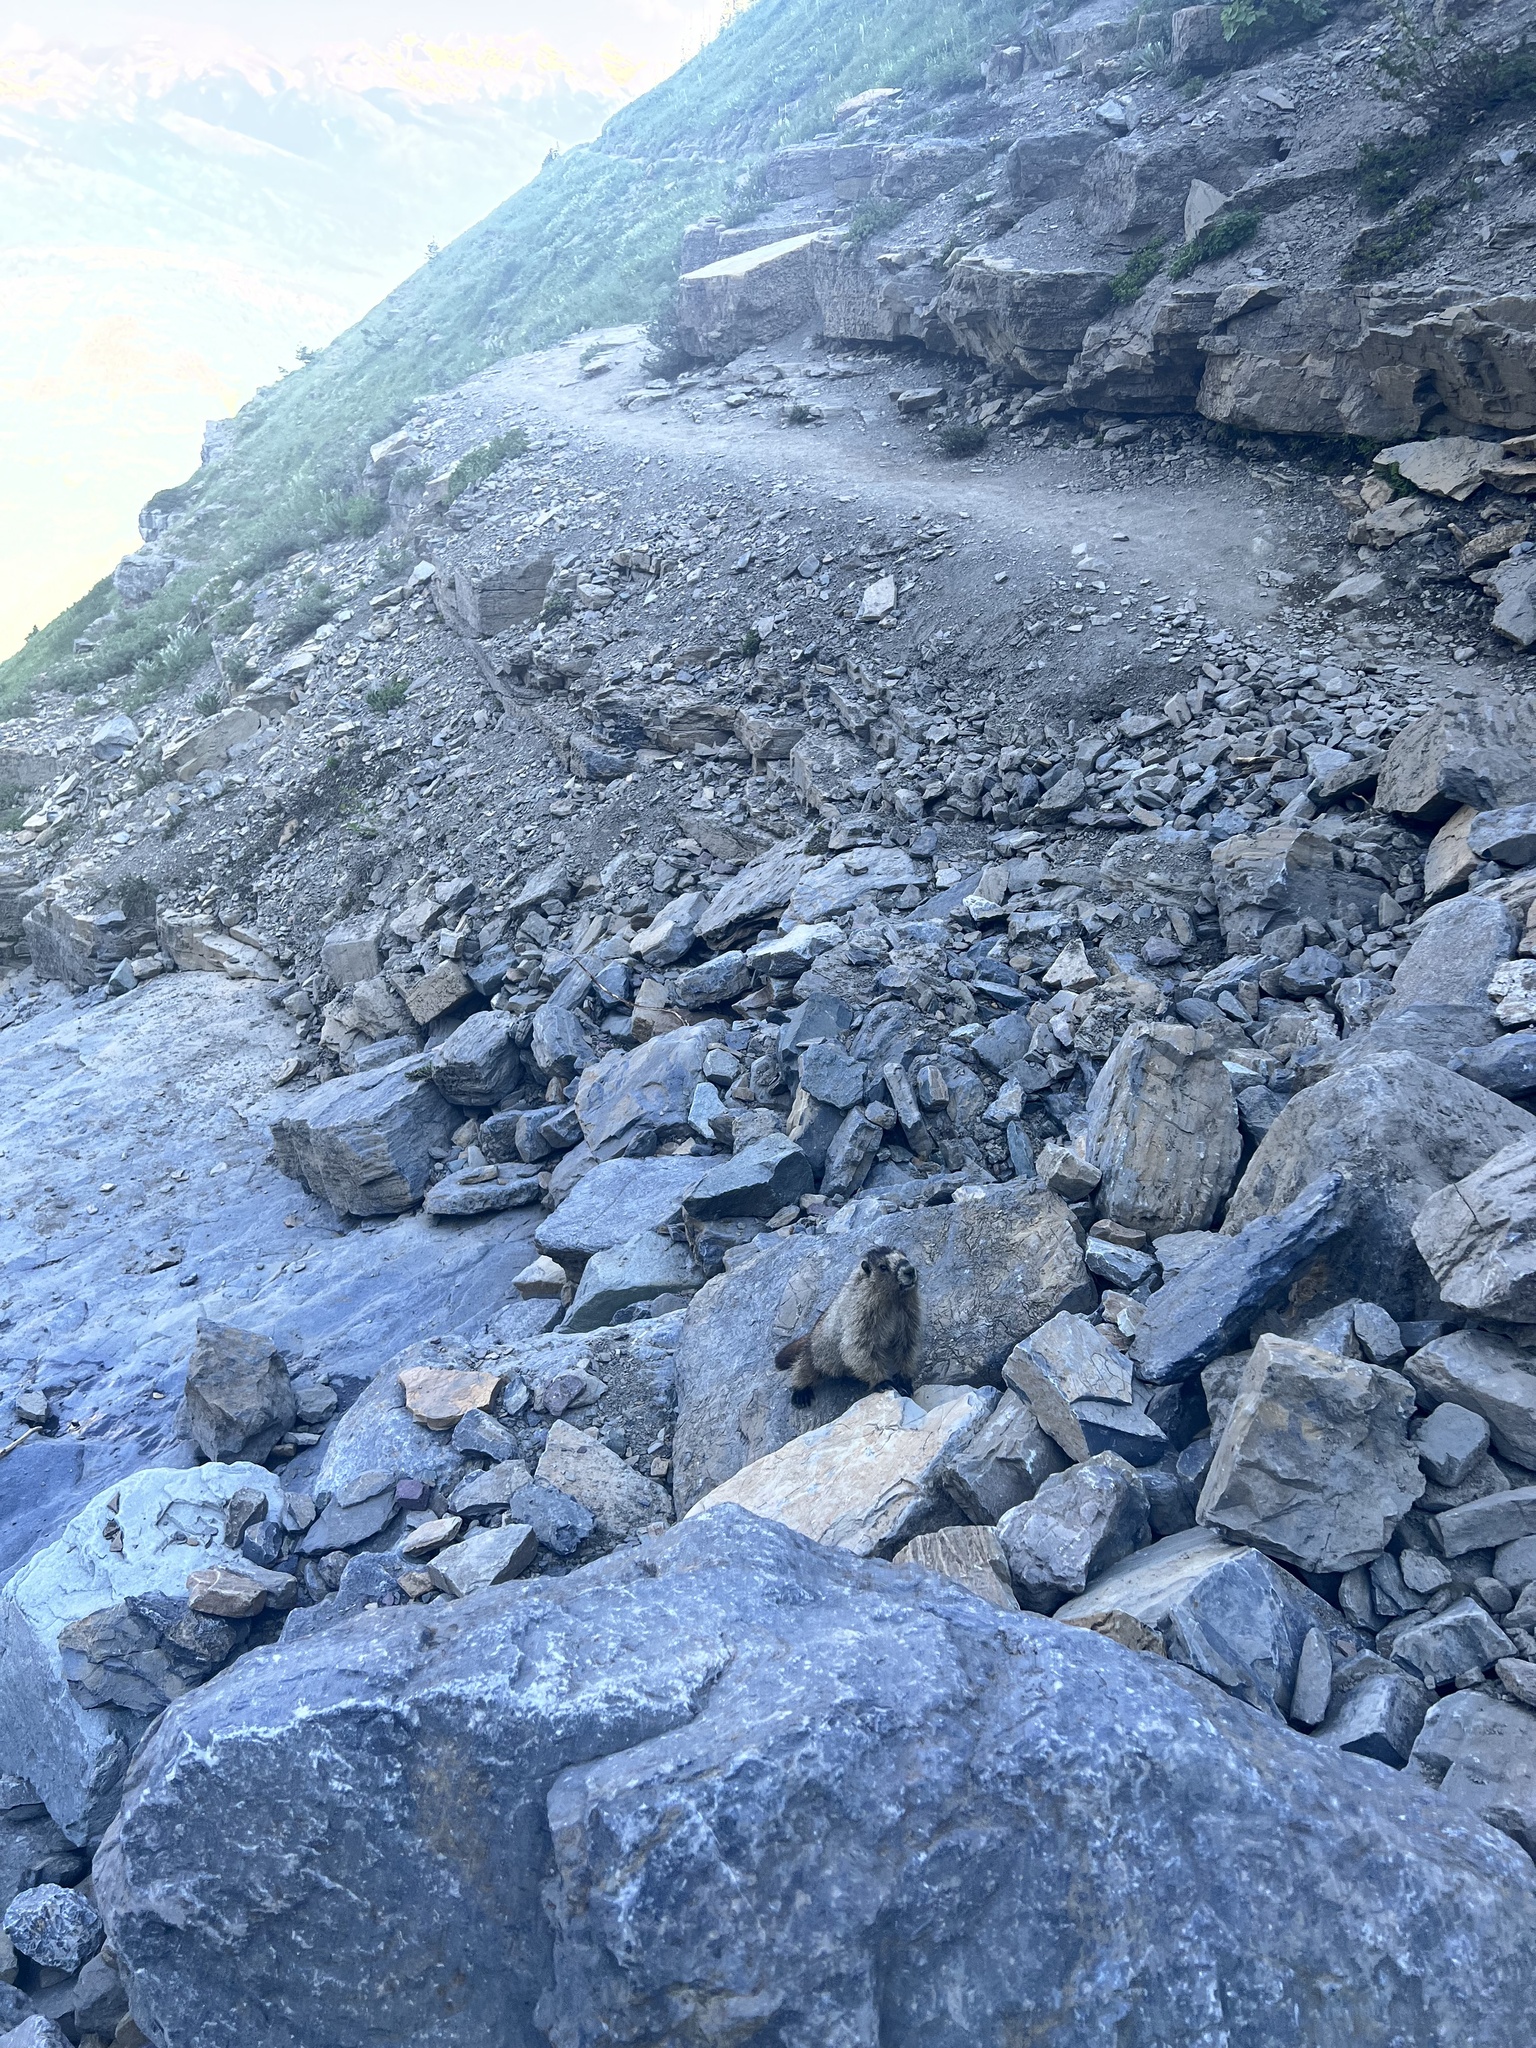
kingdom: Animalia
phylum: Chordata
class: Mammalia
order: Rodentia
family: Sciuridae
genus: Marmota
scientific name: Marmota caligata
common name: Hoary marmot
